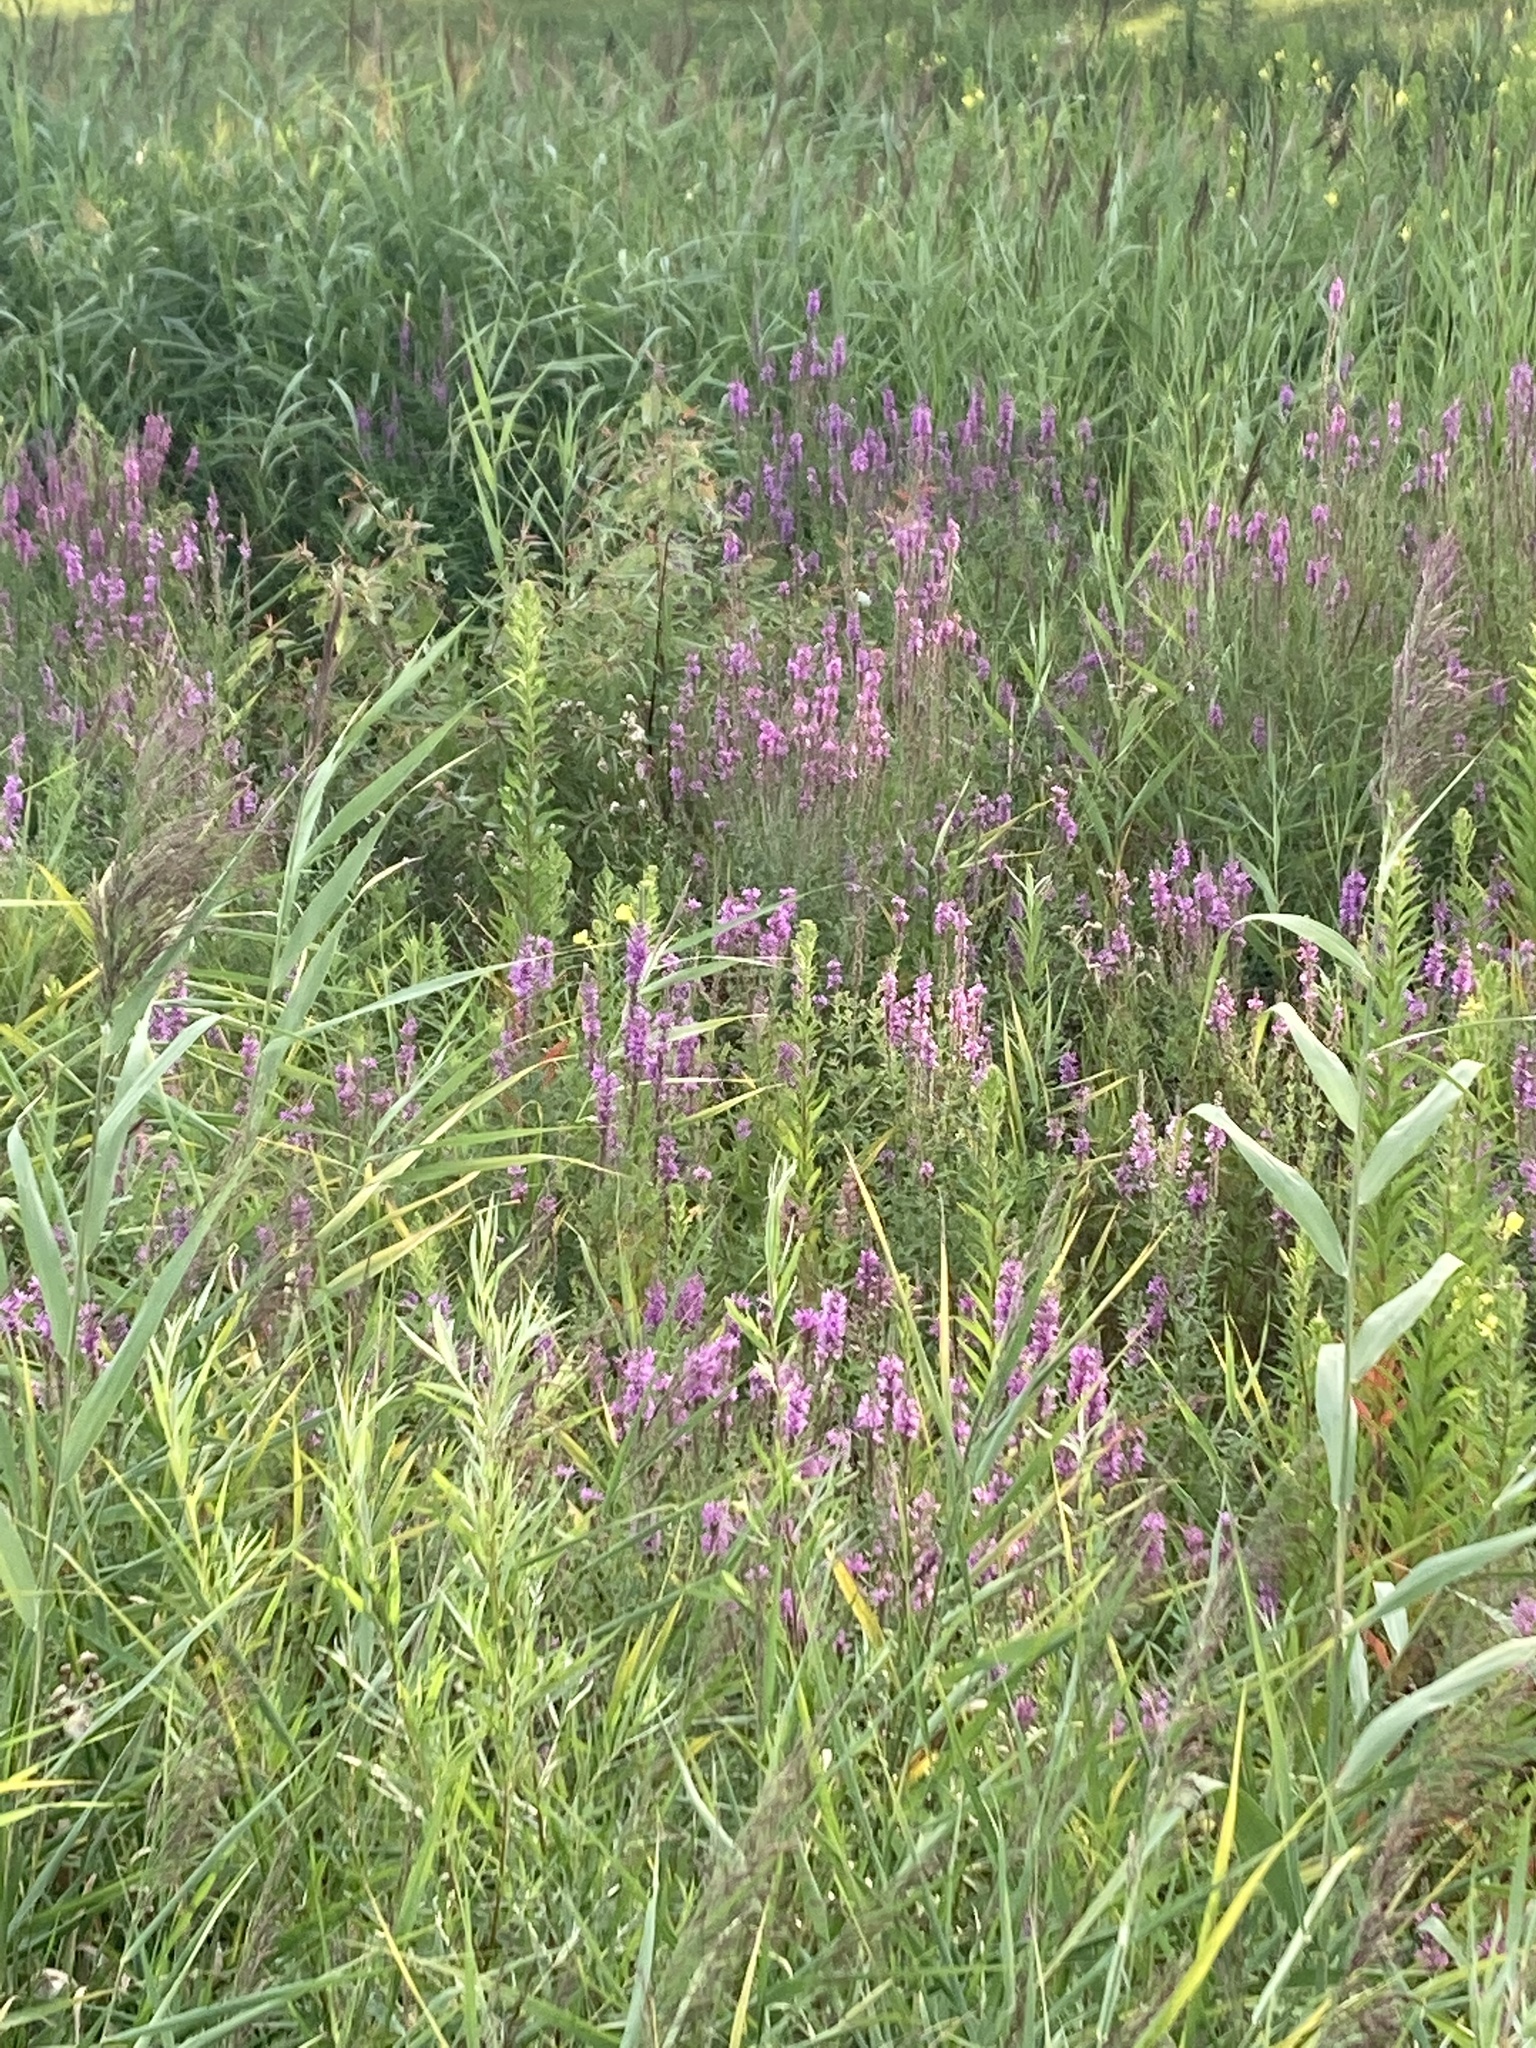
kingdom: Plantae
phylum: Tracheophyta
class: Magnoliopsida
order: Myrtales
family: Lythraceae
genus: Lythrum
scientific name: Lythrum salicaria
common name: Purple loosestrife
